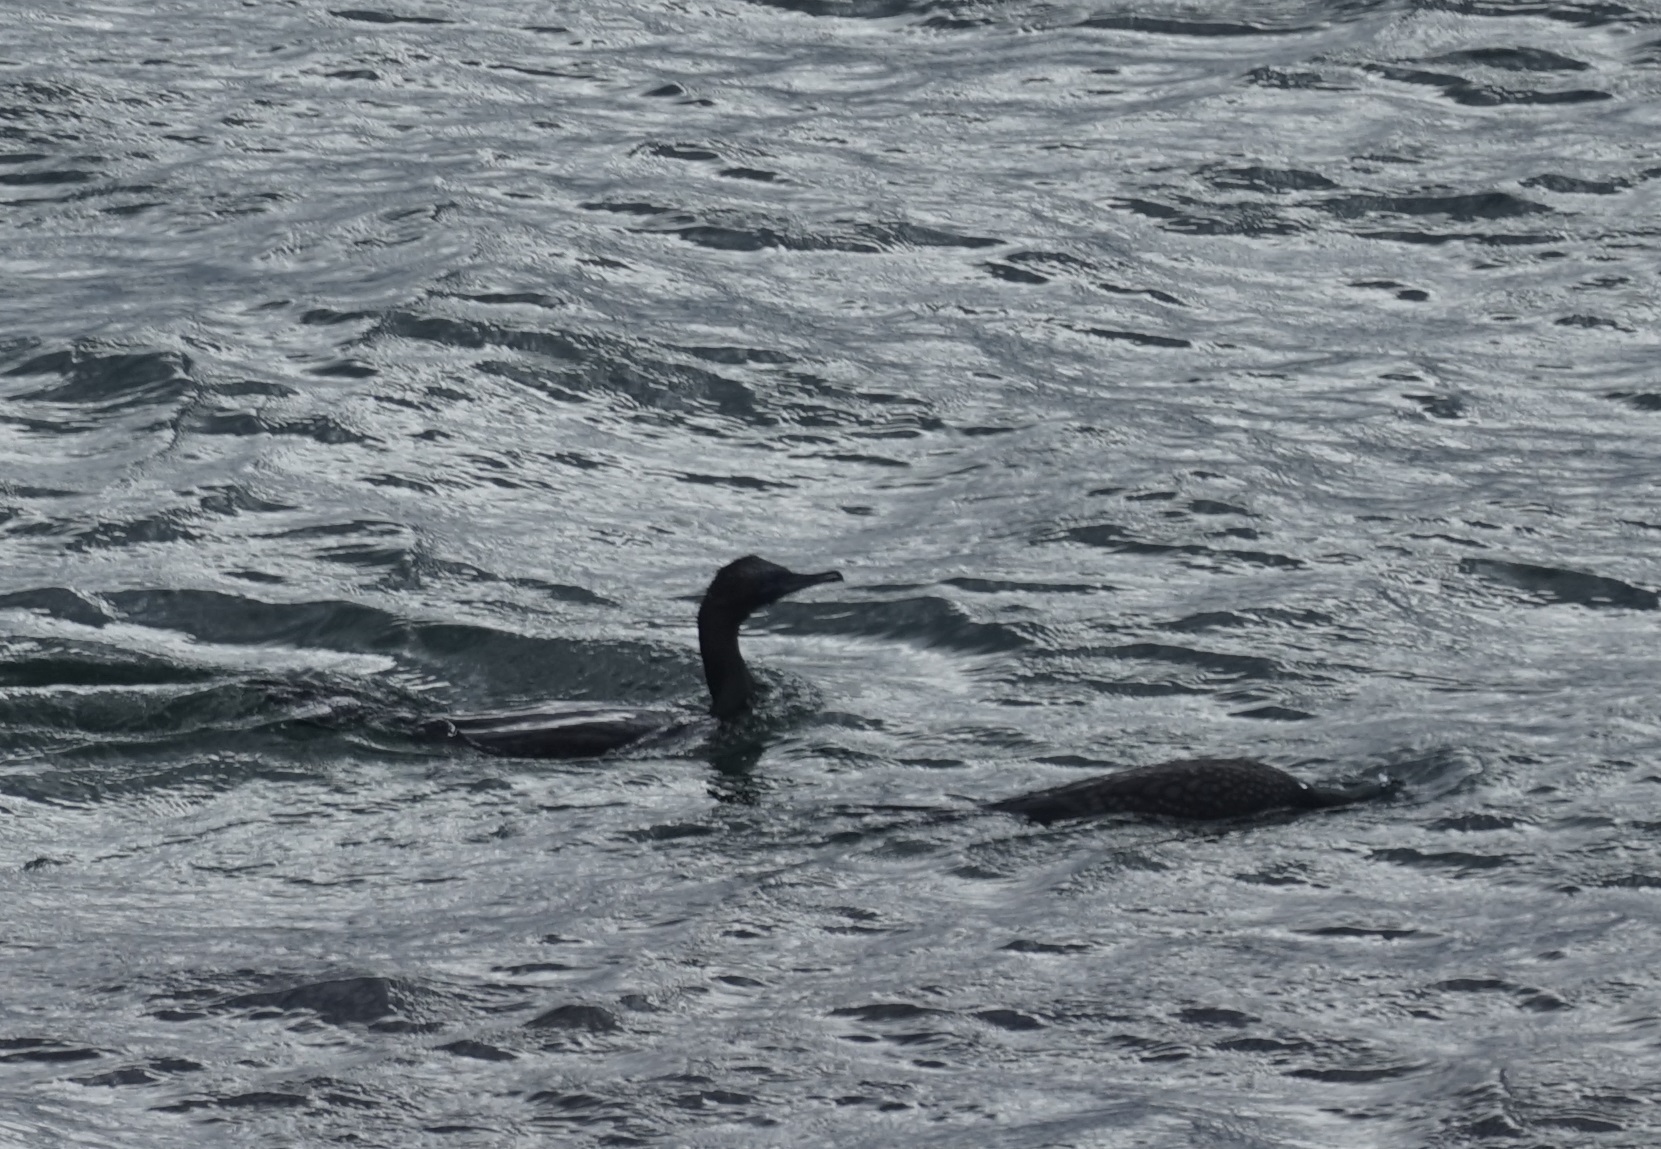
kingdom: Animalia
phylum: Chordata
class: Aves
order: Suliformes
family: Phalacrocoracidae
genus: Phalacrocorax
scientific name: Phalacrocorax sulcirostris
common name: Little black cormorant
